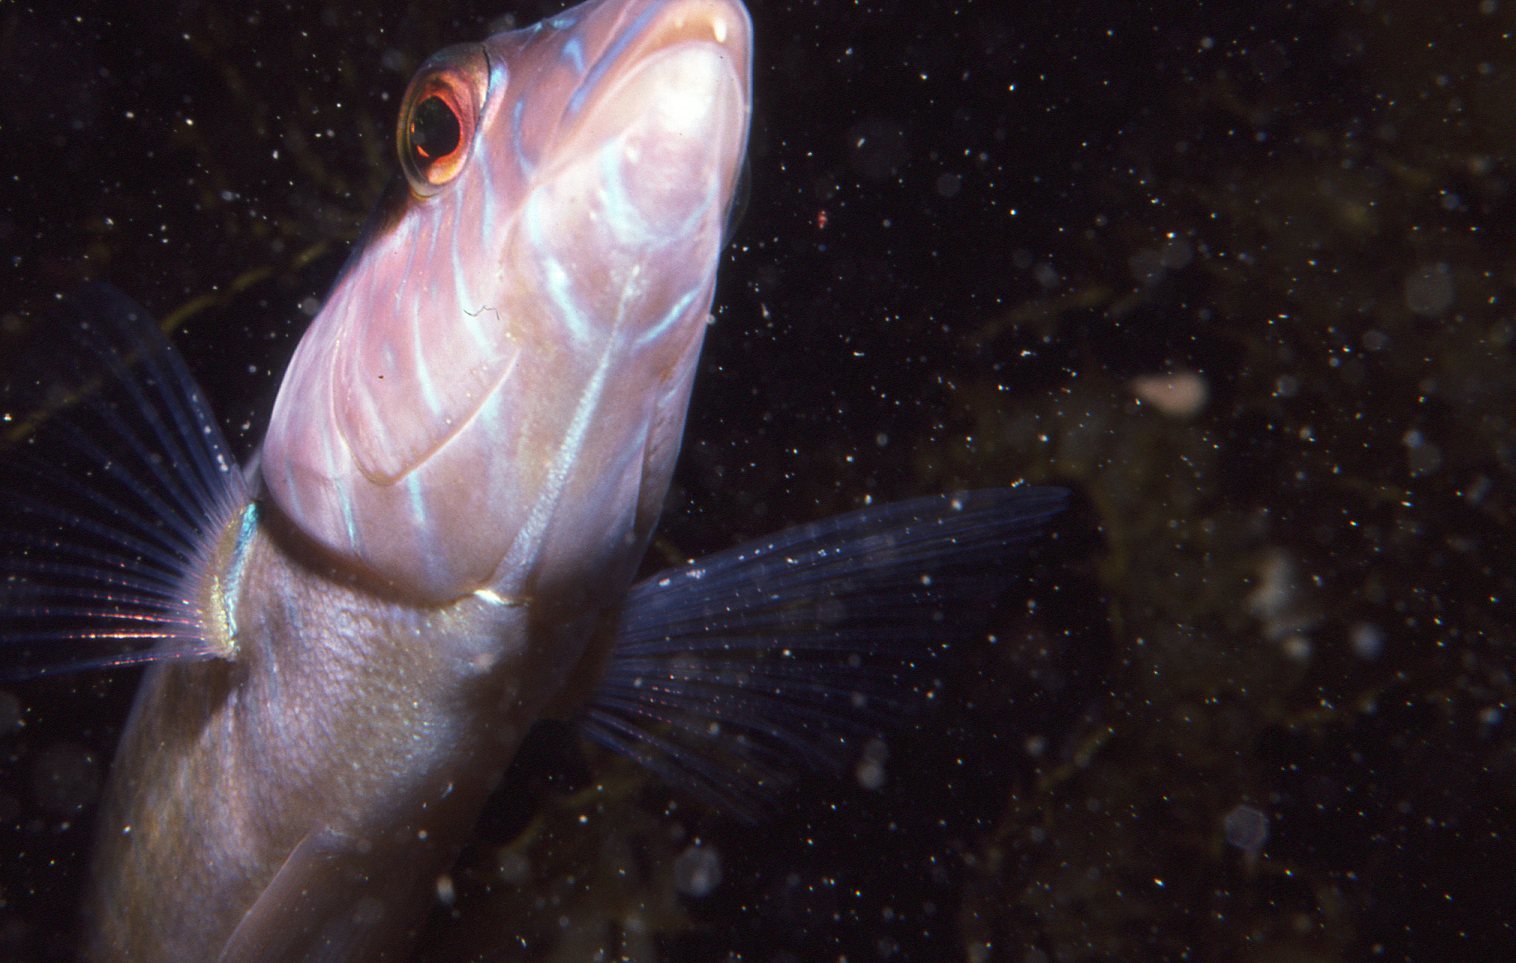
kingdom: Animalia
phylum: Chordata
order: Perciformes
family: Labridae
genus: Ophthalmolepis
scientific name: Ophthalmolepis lineolata
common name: Maori wrasse
